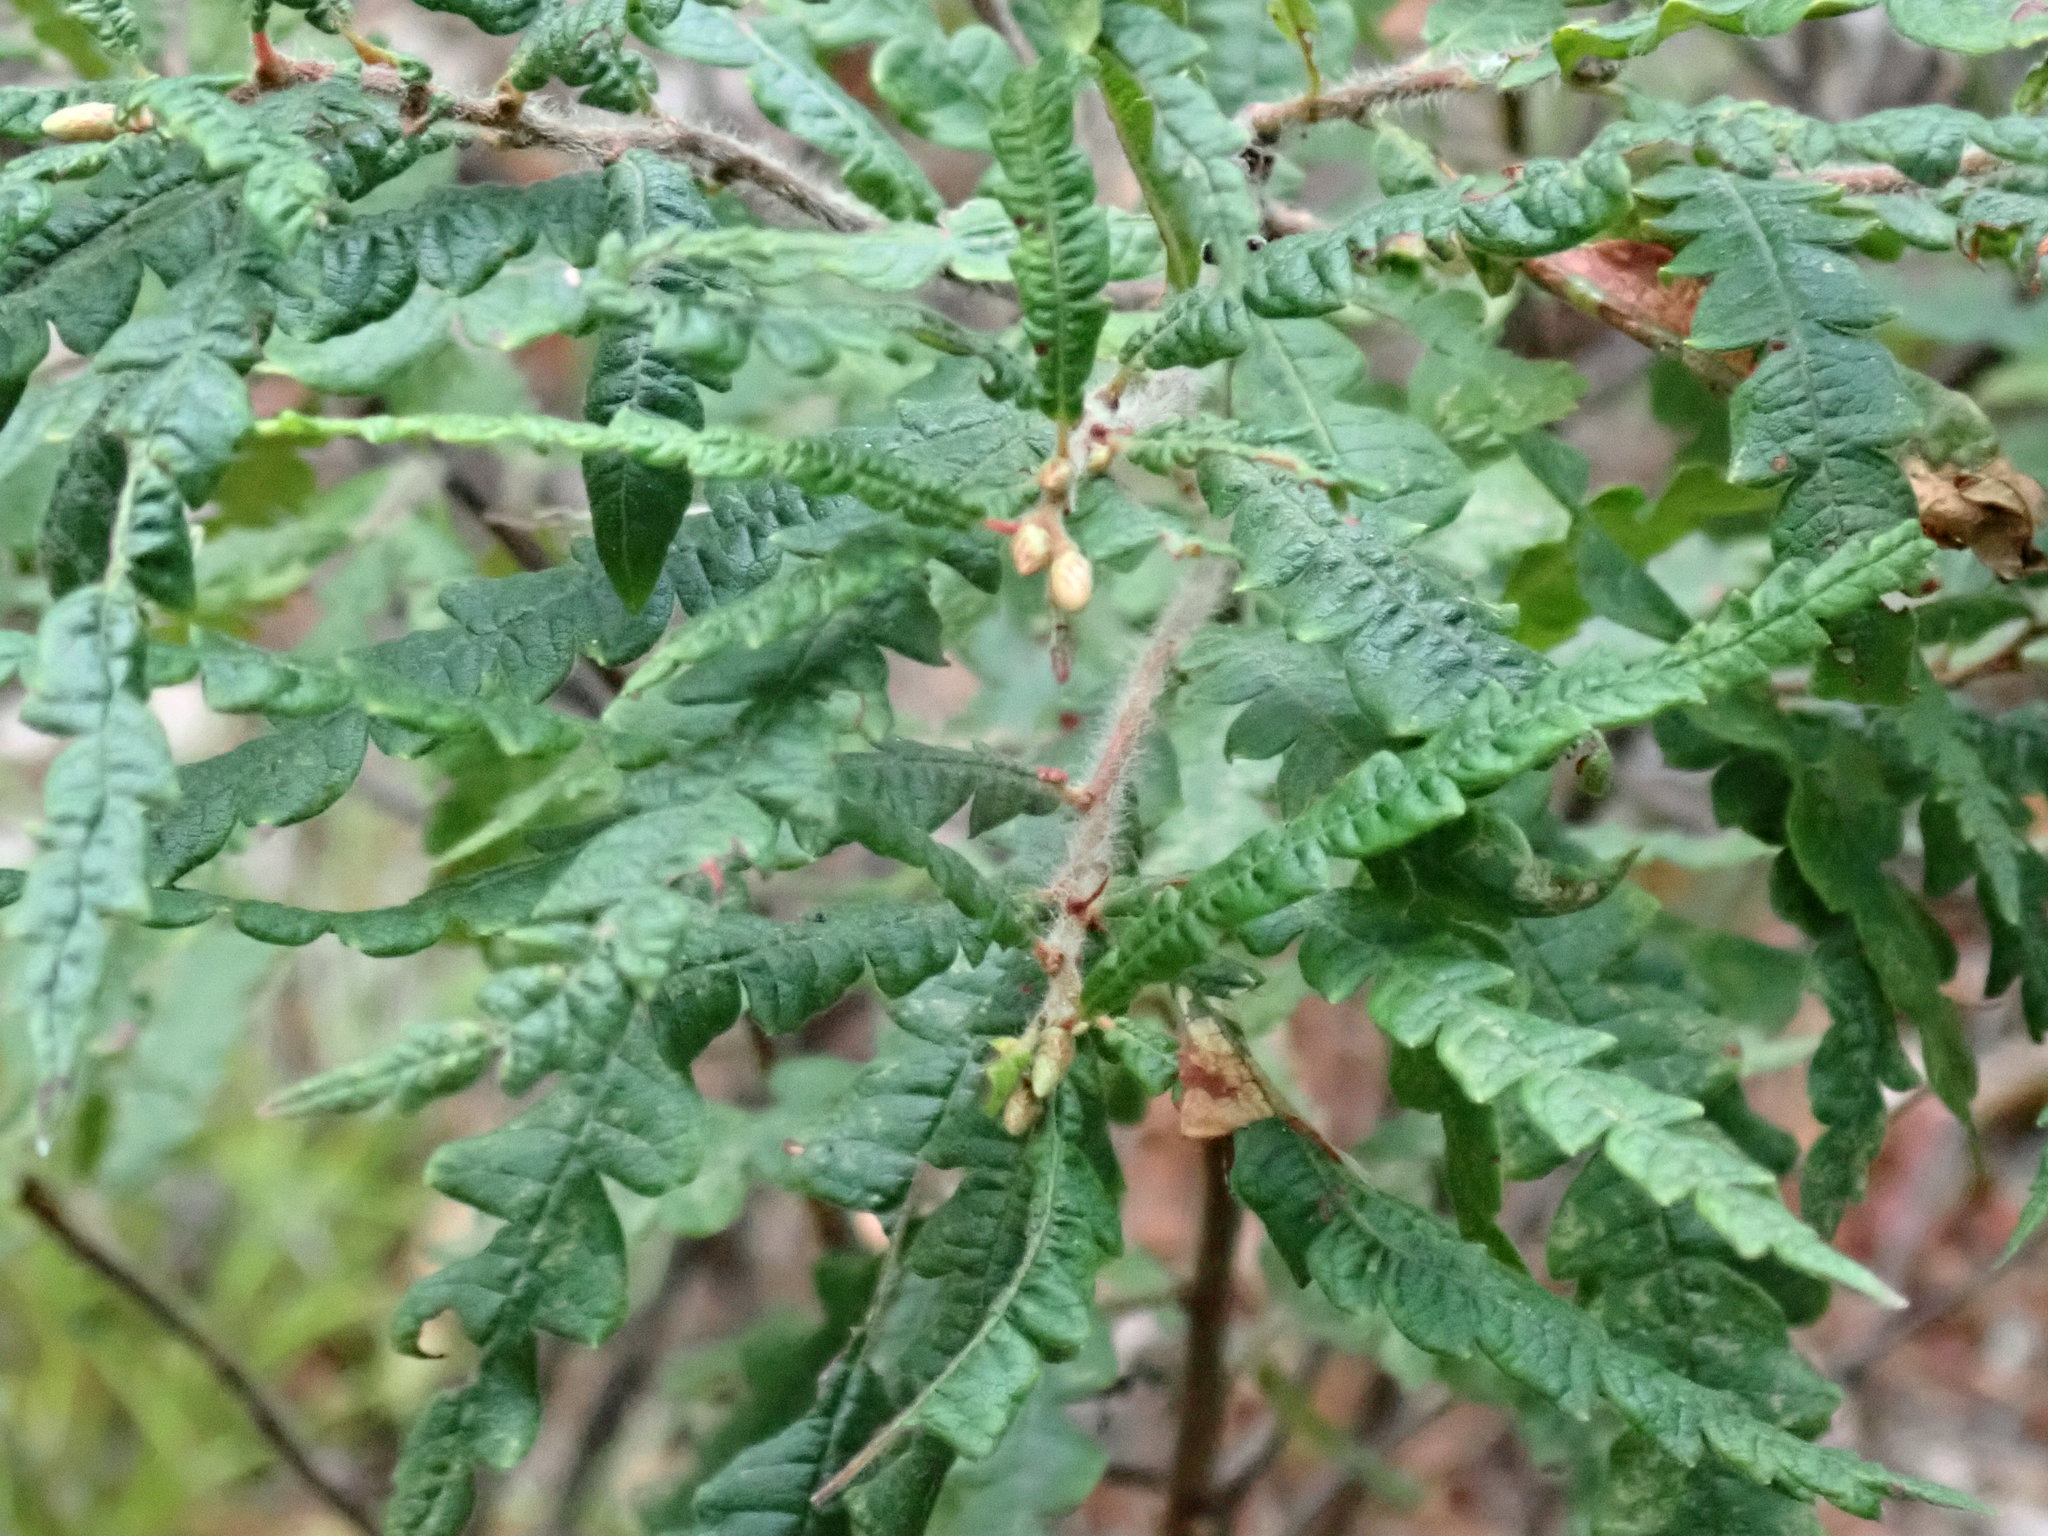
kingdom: Plantae
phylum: Tracheophyta
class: Magnoliopsida
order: Fagales
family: Myricaceae
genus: Comptonia
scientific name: Comptonia peregrina
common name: Sweet-fern
